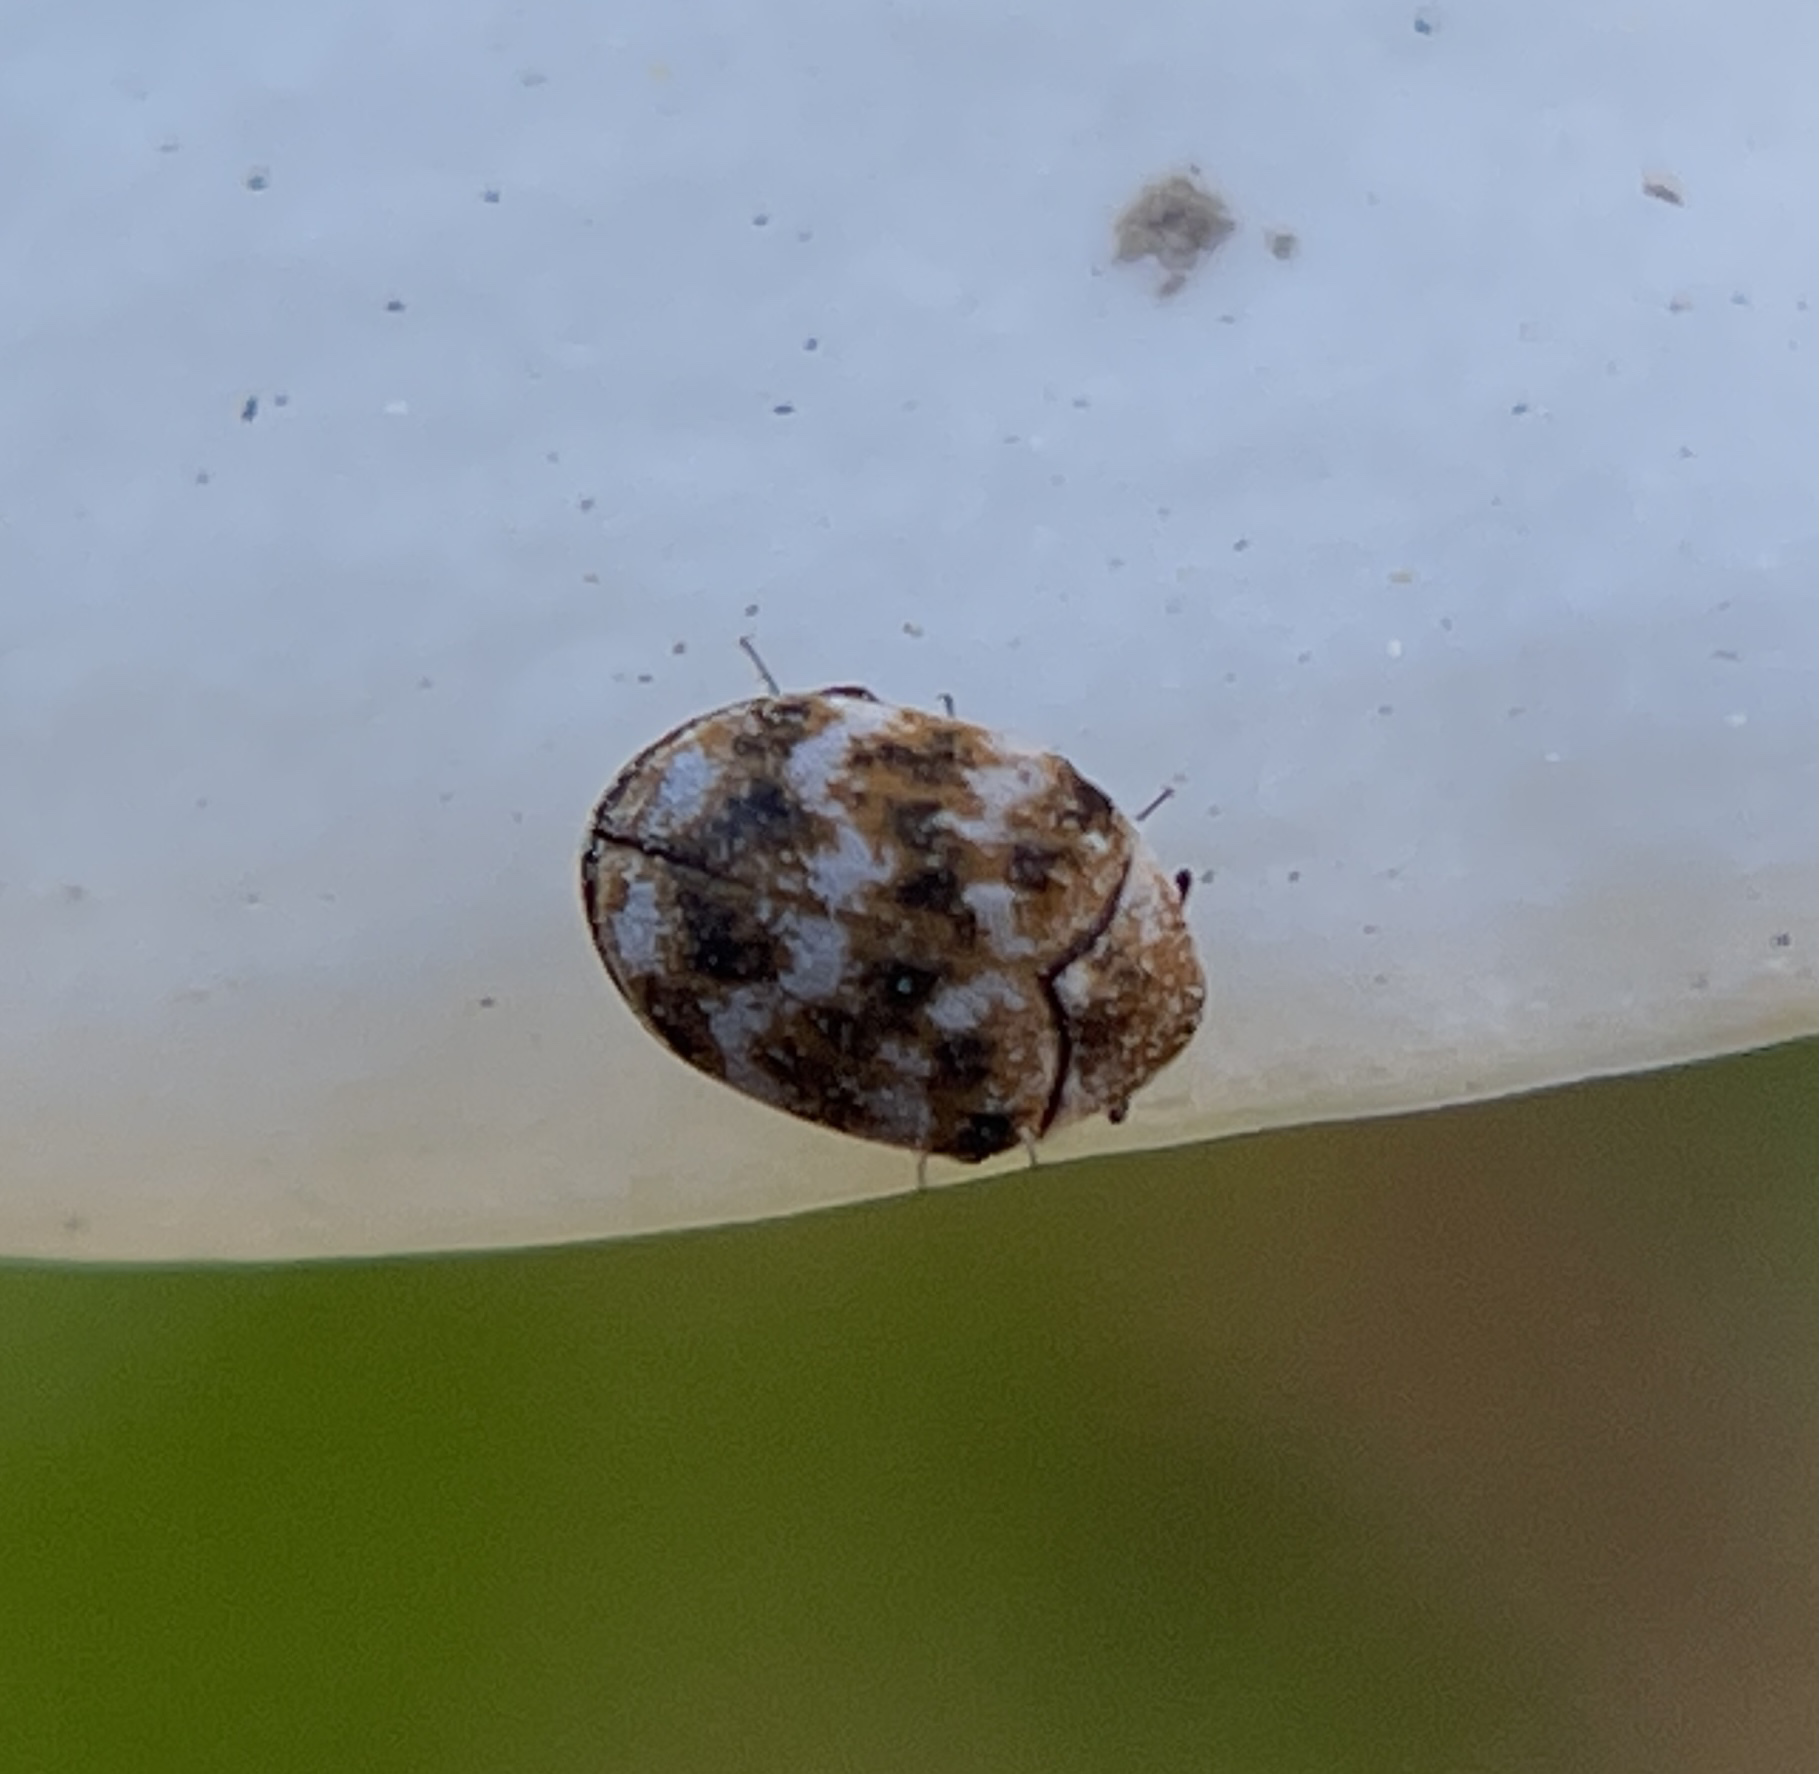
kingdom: Animalia
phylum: Arthropoda
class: Insecta
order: Coleoptera
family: Dermestidae
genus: Anthrenus
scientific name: Anthrenus verbasci
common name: Varied carpet beetle
